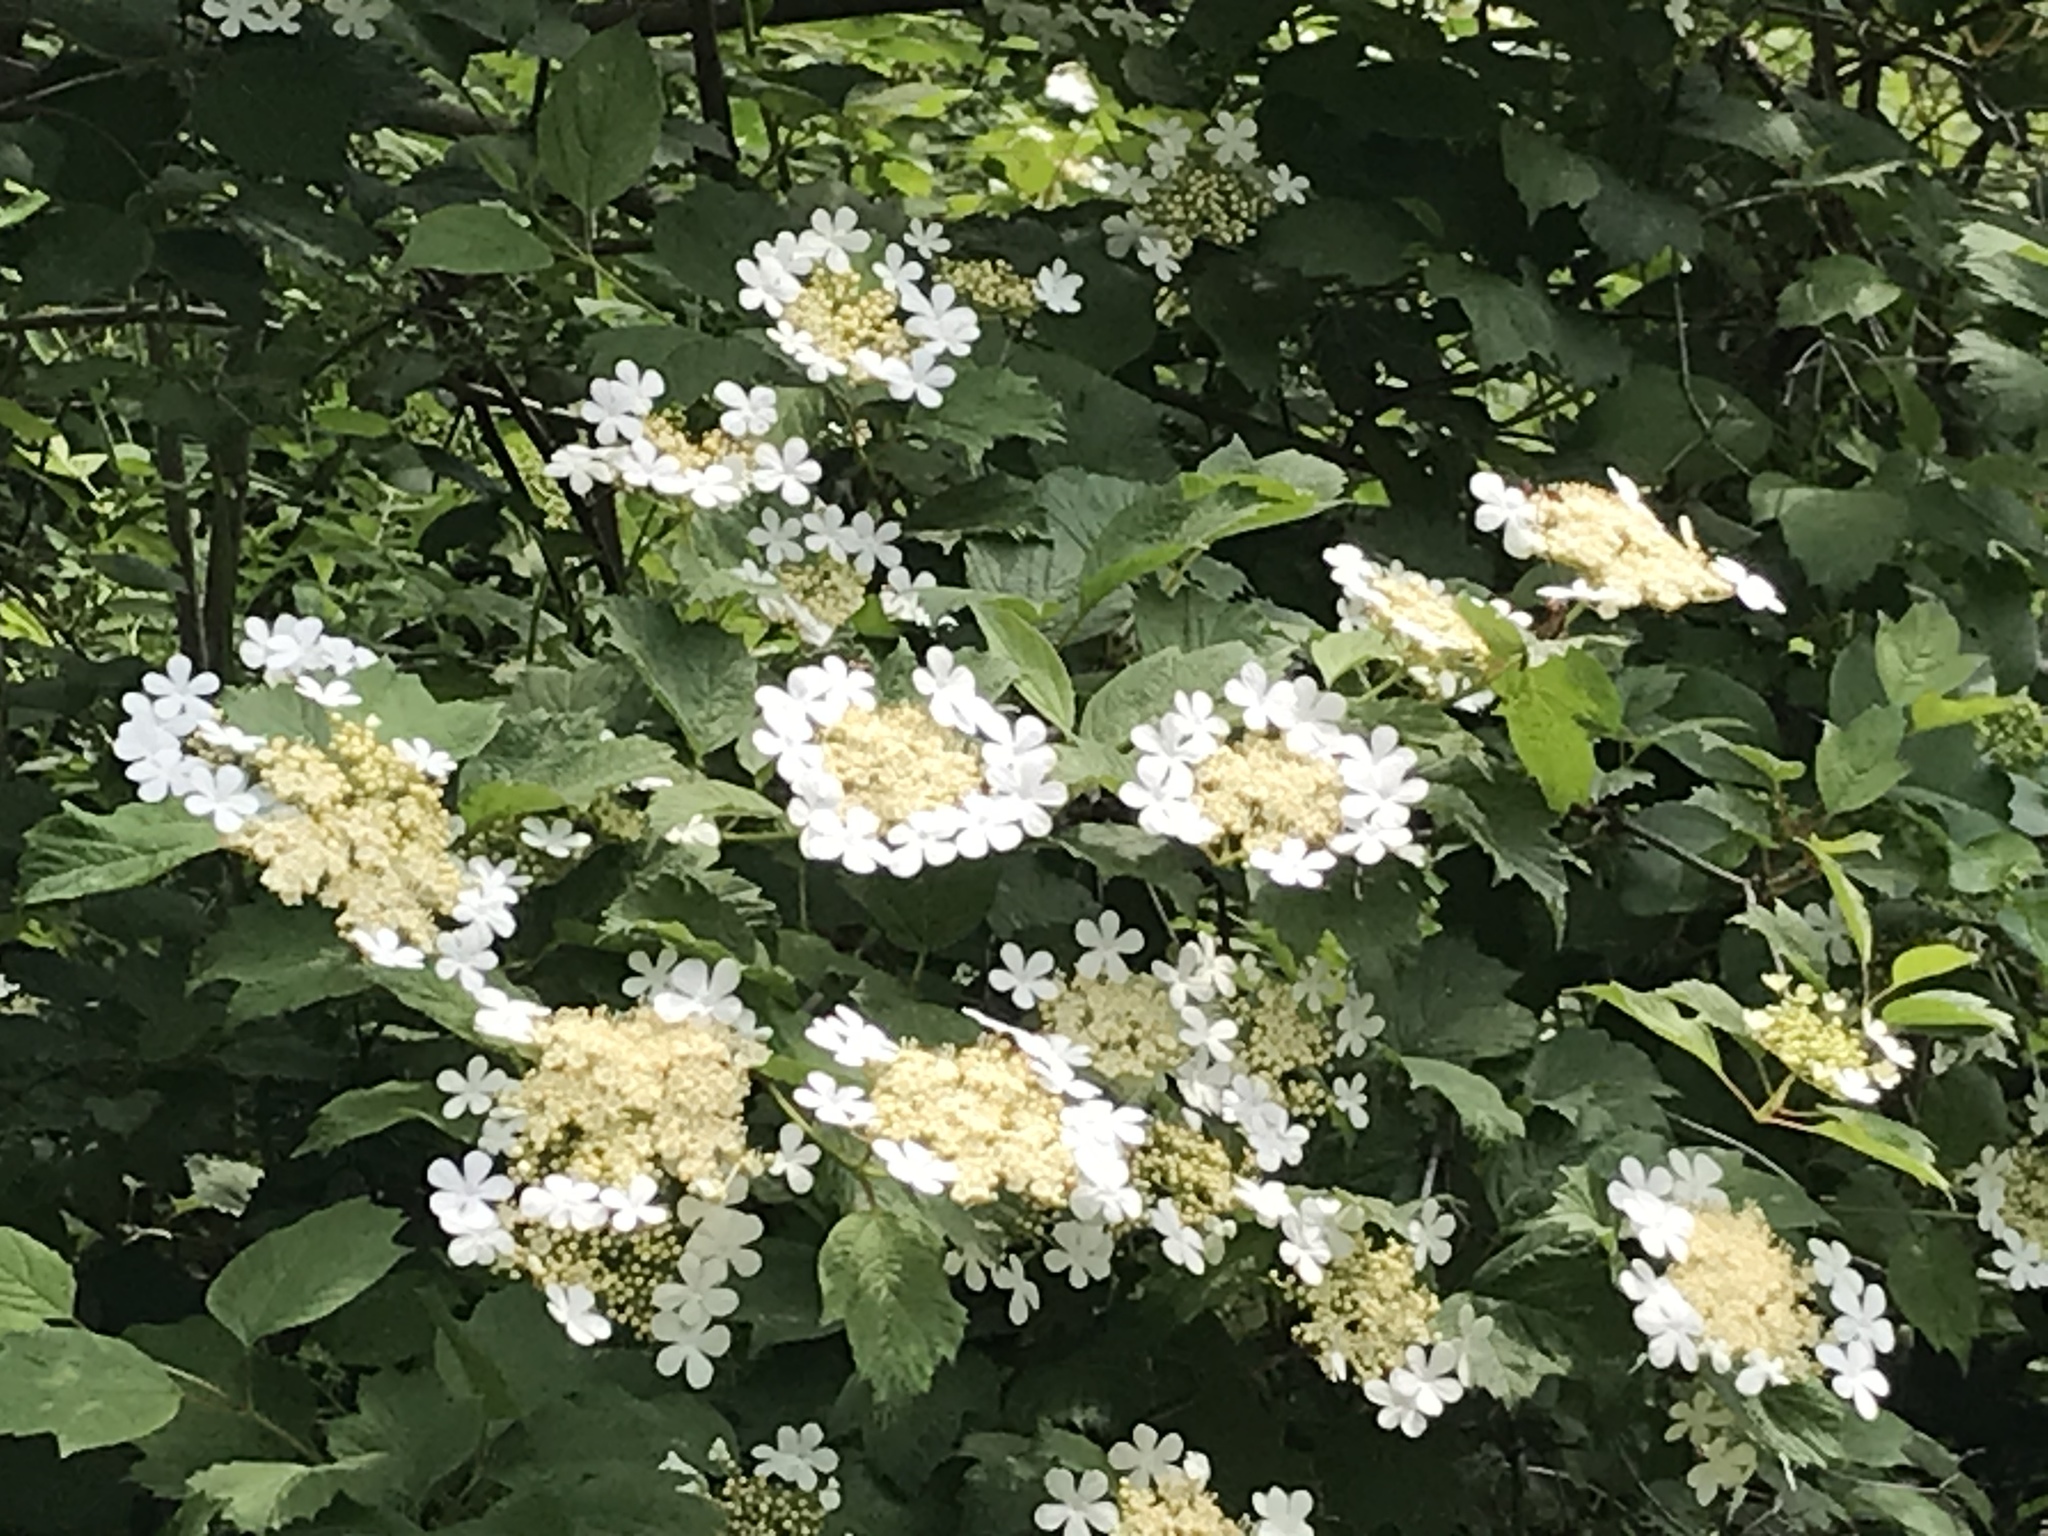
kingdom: Plantae
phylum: Tracheophyta
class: Magnoliopsida
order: Dipsacales
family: Viburnaceae
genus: Viburnum
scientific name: Viburnum opulus
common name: Guelder-rose
